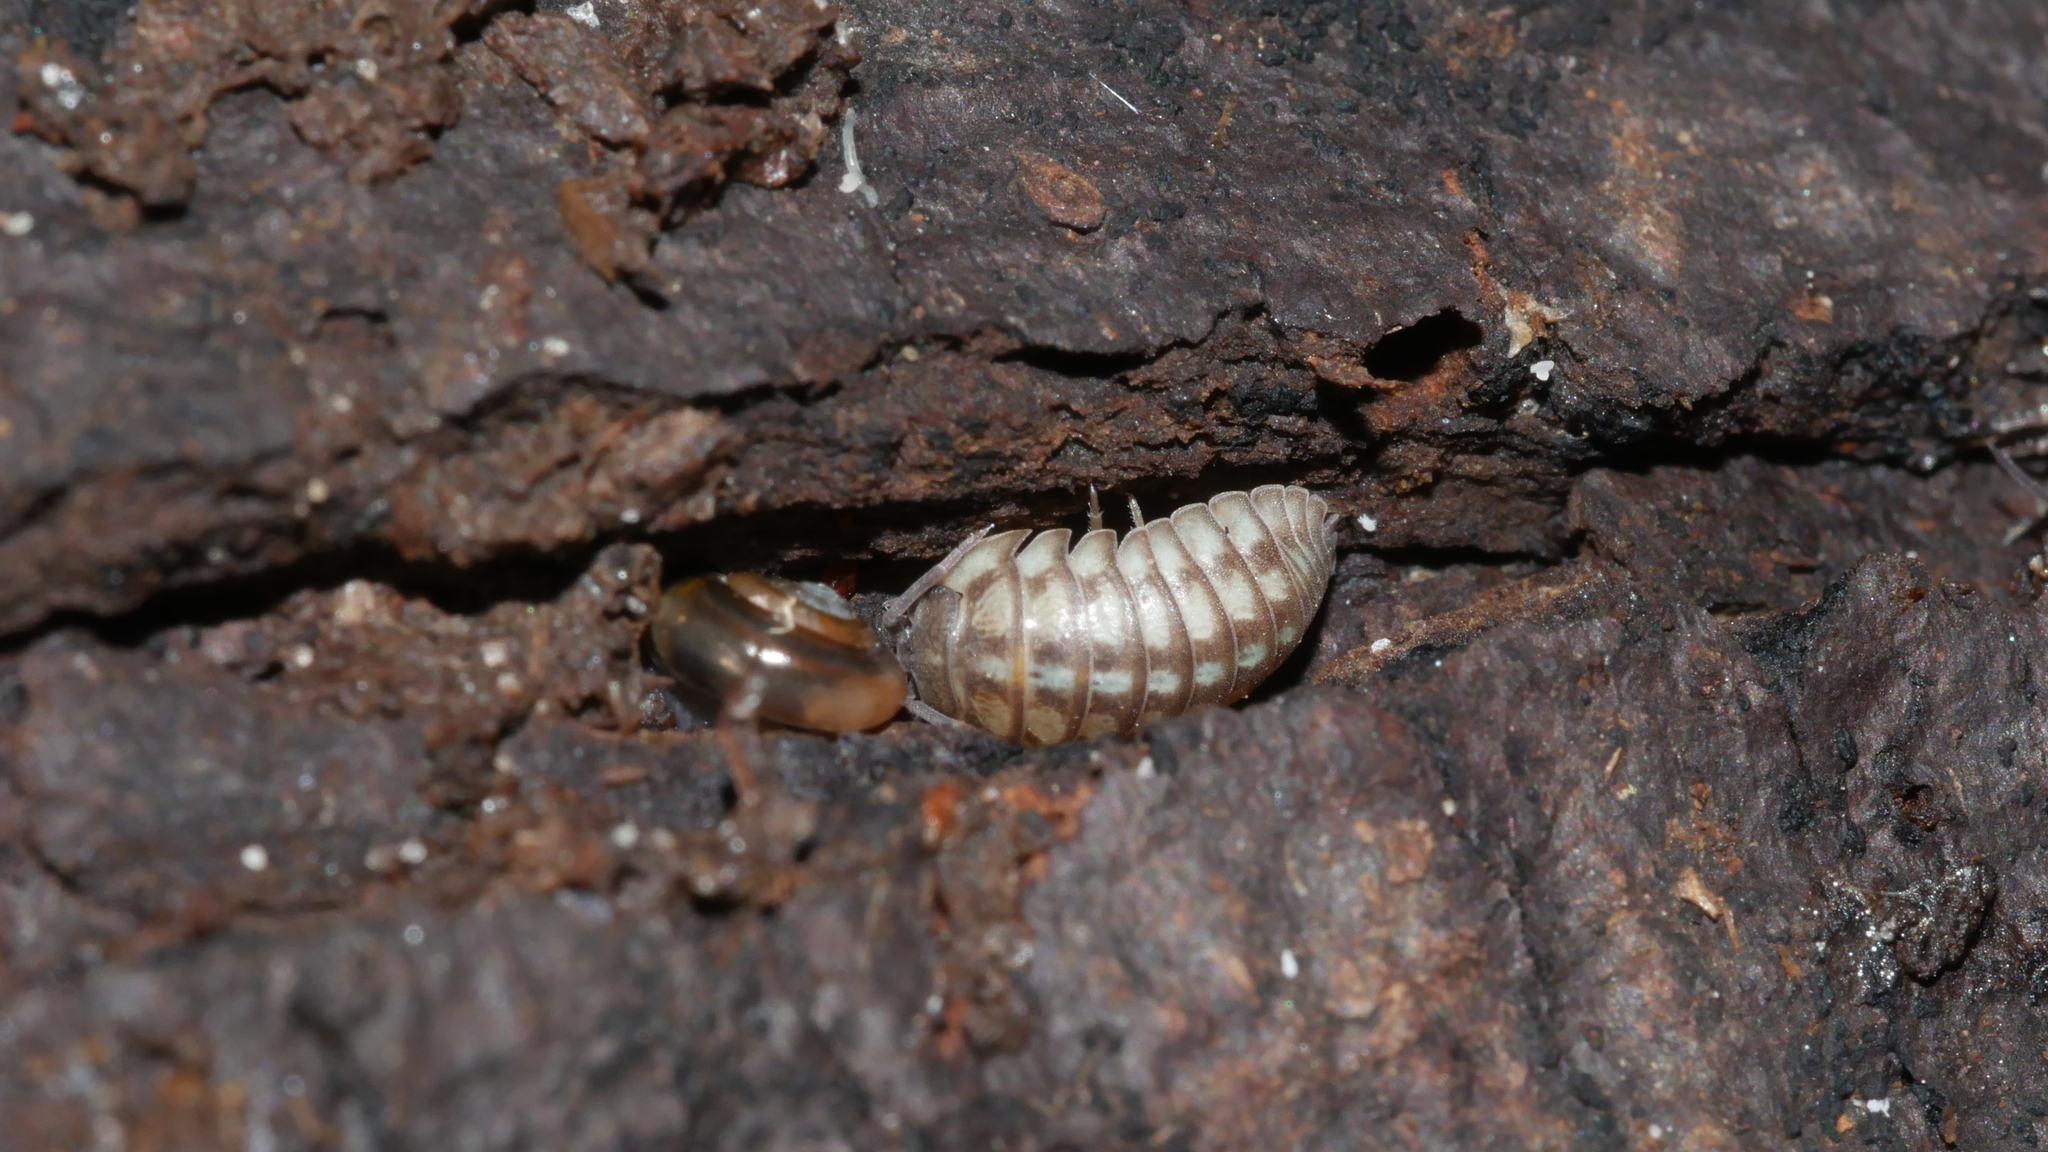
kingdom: Animalia
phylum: Arthropoda
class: Malacostraca
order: Isopoda
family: Armadillidiidae
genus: Armadillidium
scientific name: Armadillidium nasatum
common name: Isopod
